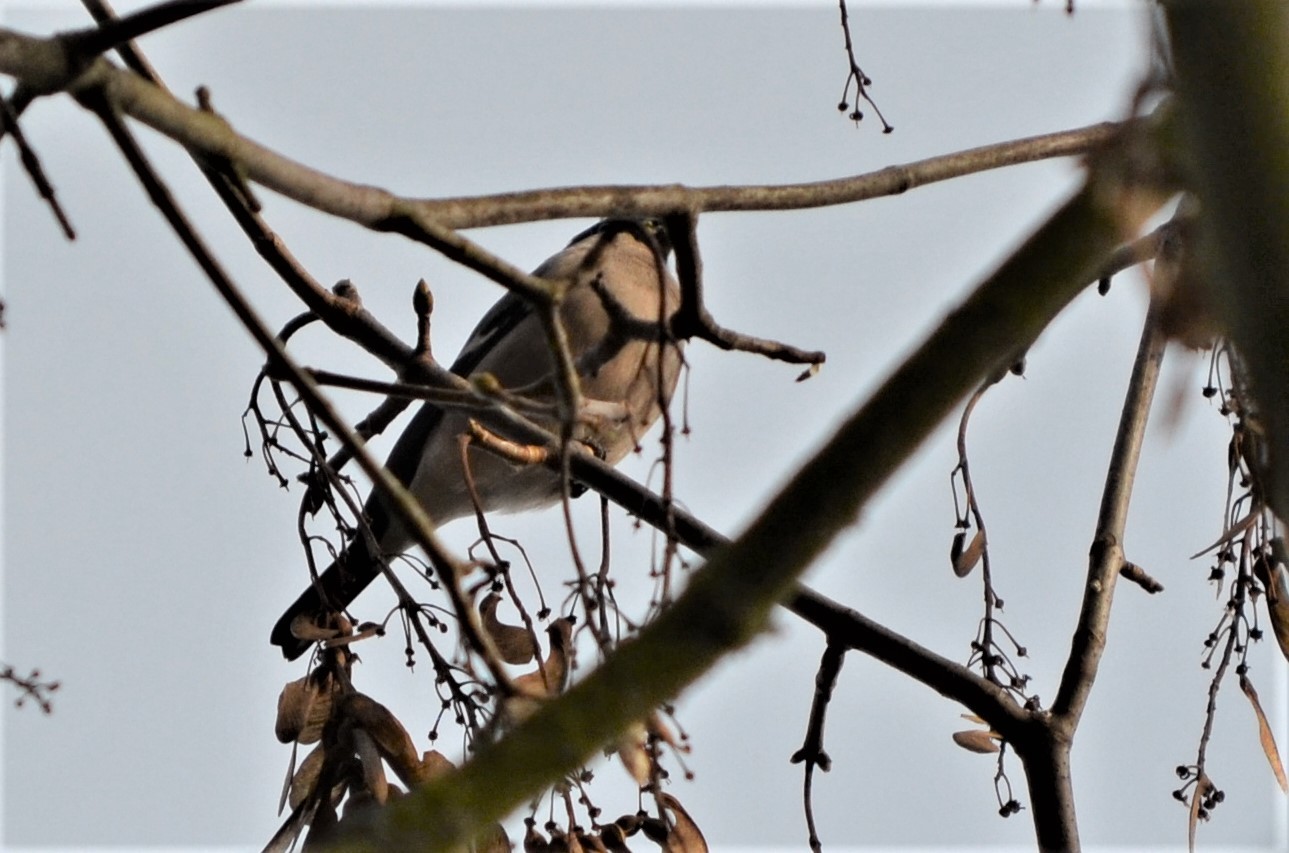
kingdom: Animalia
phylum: Chordata
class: Aves
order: Passeriformes
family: Fringillidae
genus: Pyrrhula
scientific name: Pyrrhula pyrrhula
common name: Eurasian bullfinch
